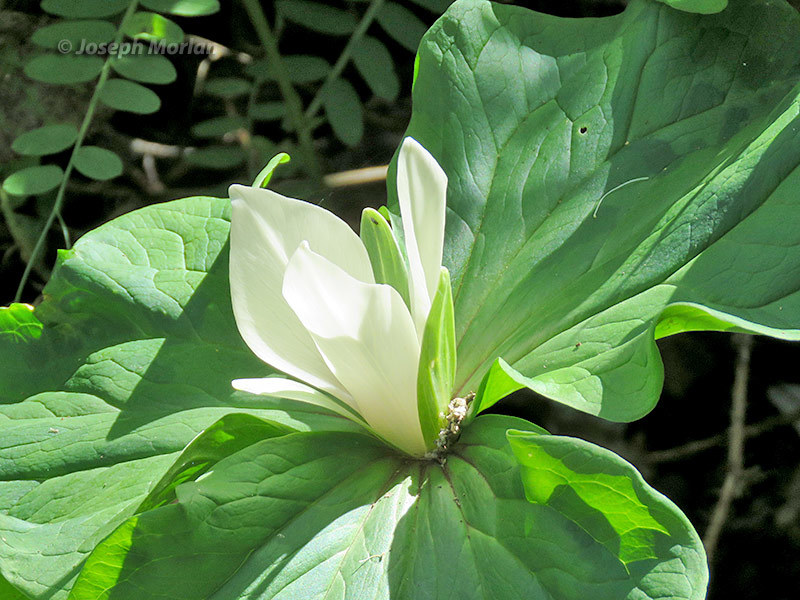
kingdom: Plantae
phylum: Tracheophyta
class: Liliopsida
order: Liliales
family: Melanthiaceae
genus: Trillium
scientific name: Trillium chloropetalum
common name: Giant trillium
